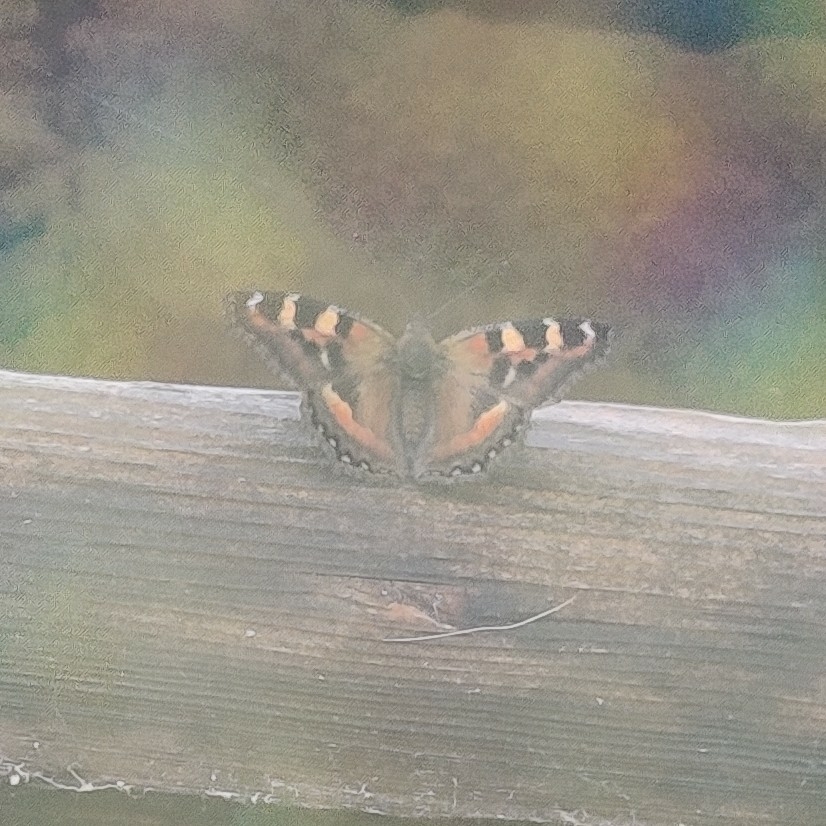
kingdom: Animalia
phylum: Arthropoda
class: Insecta
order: Lepidoptera
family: Nymphalidae
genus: Aglais
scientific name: Aglais caschmirensis
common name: Indian tortoiseshell
